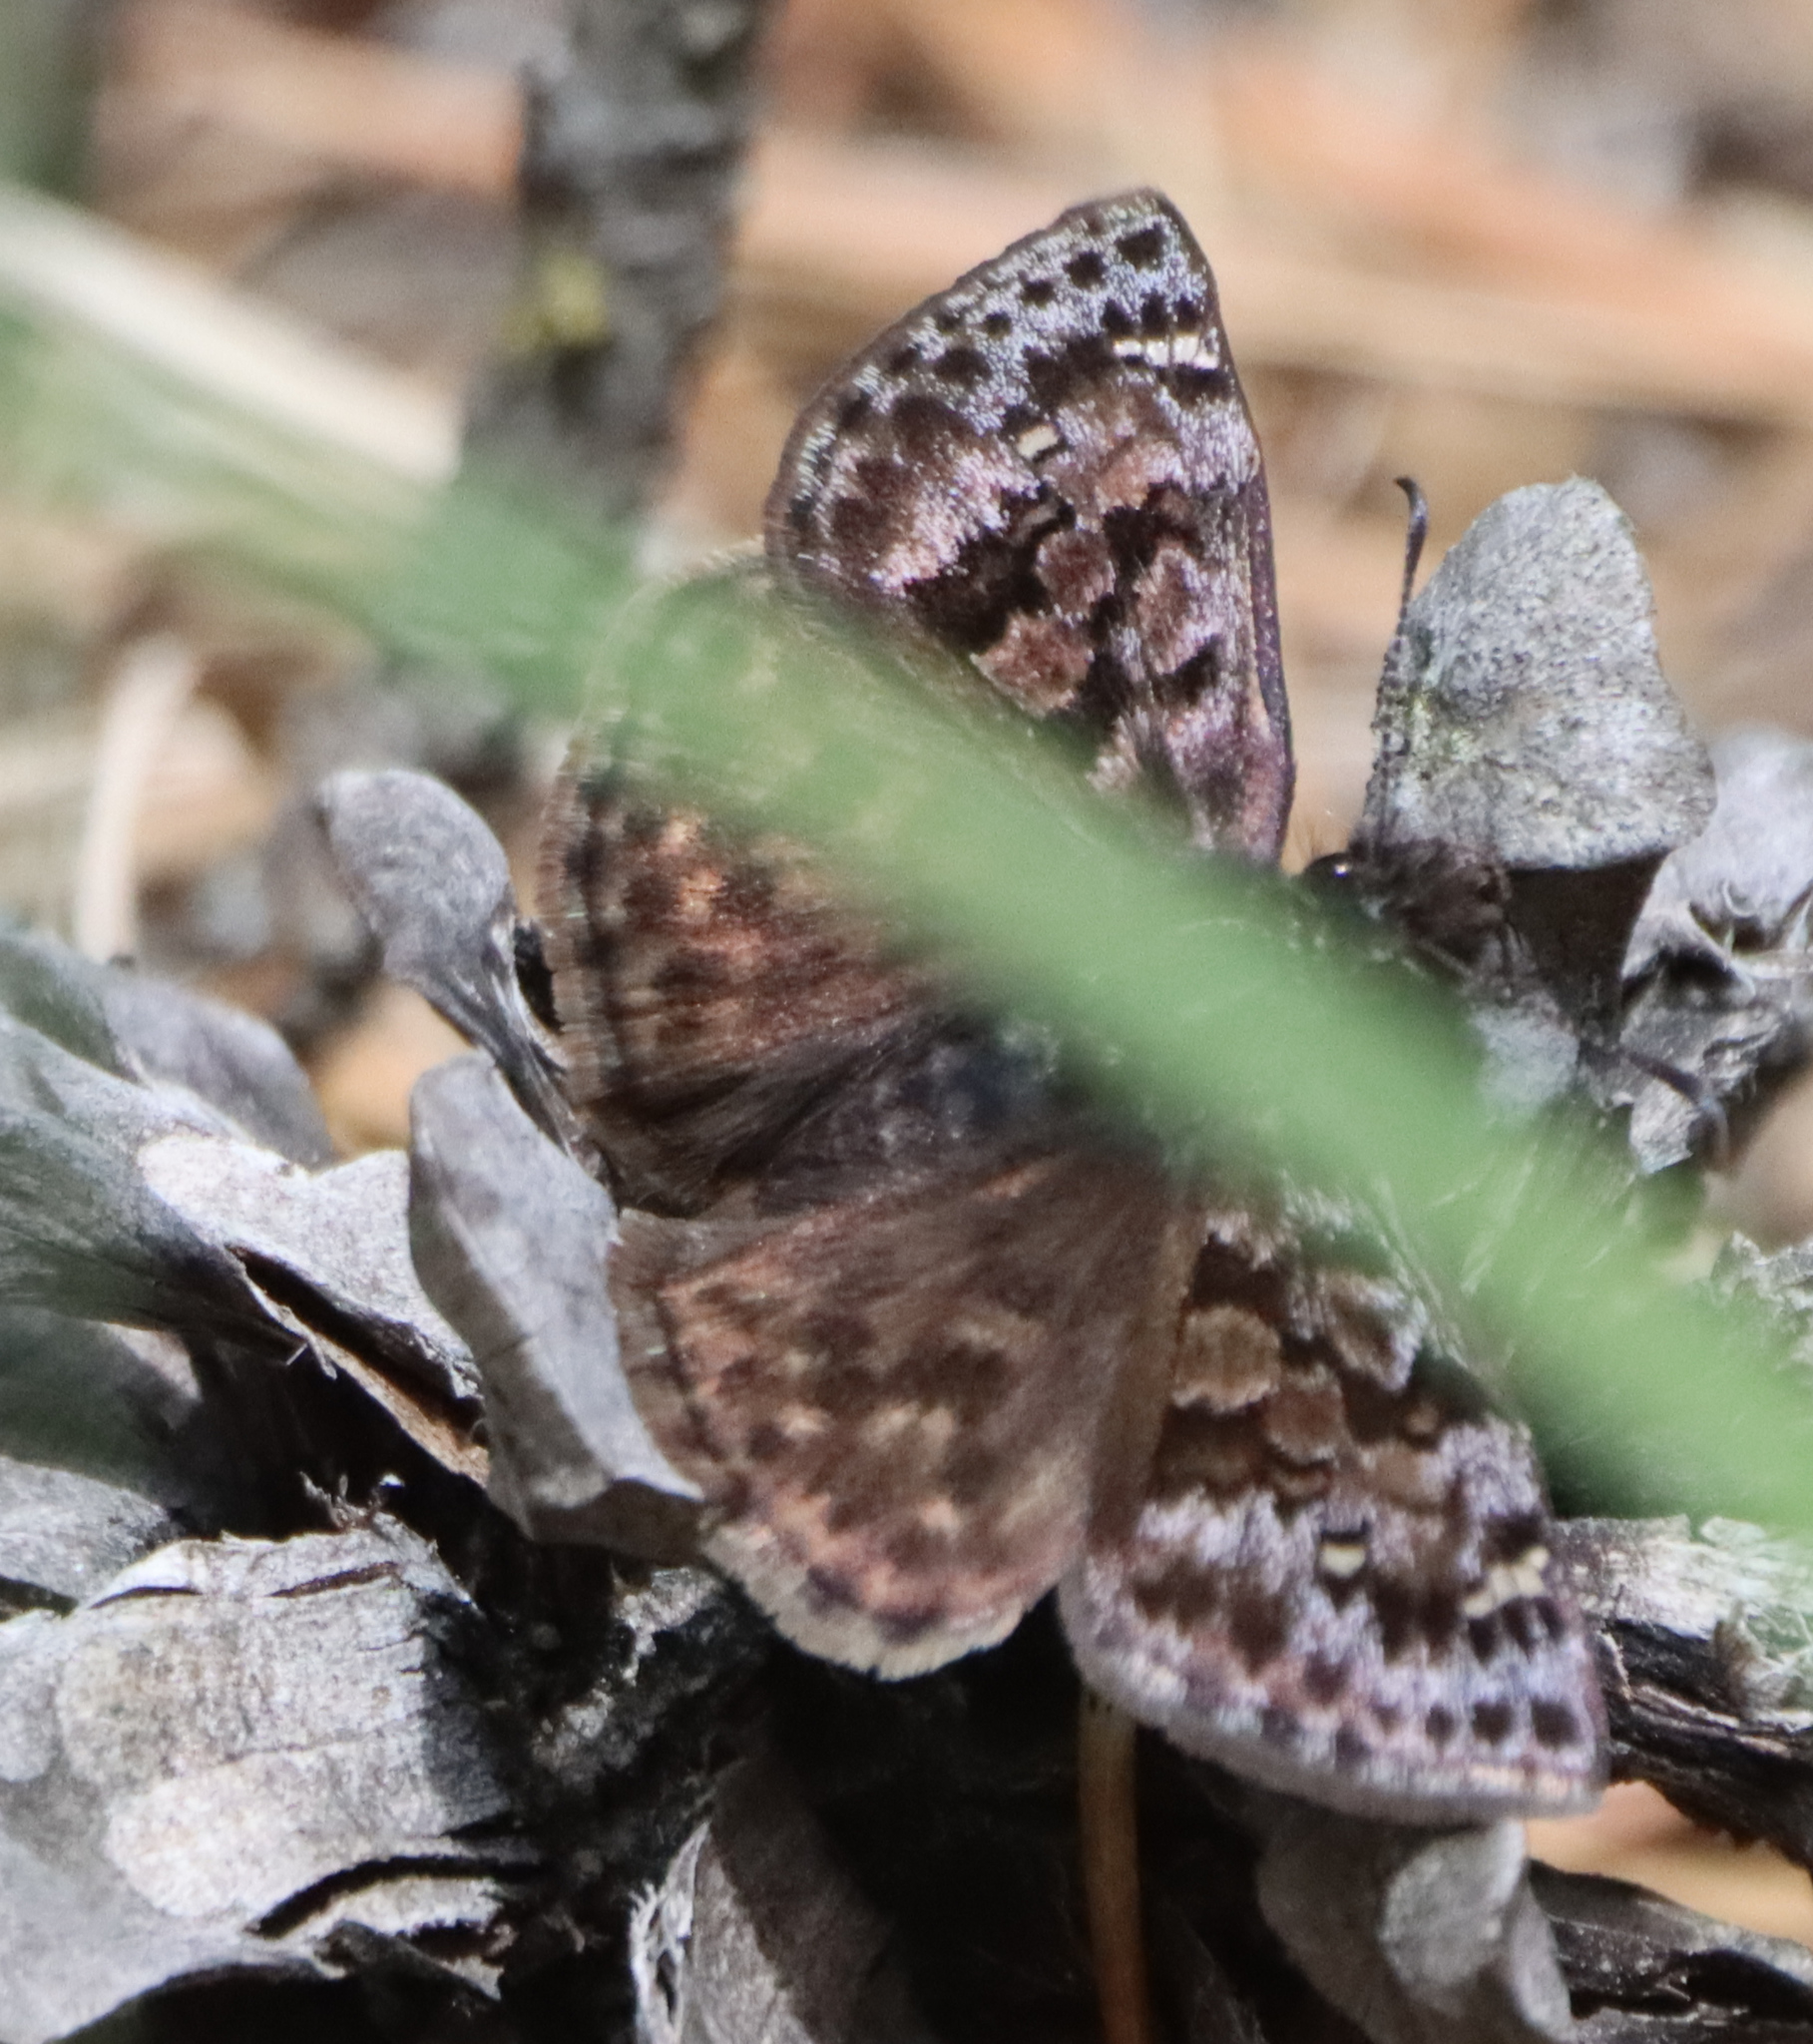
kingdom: Animalia
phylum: Arthropoda
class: Insecta
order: Lepidoptera
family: Hesperiidae
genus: Erynnis
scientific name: Erynnis martialis
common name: Mottled duskywing
